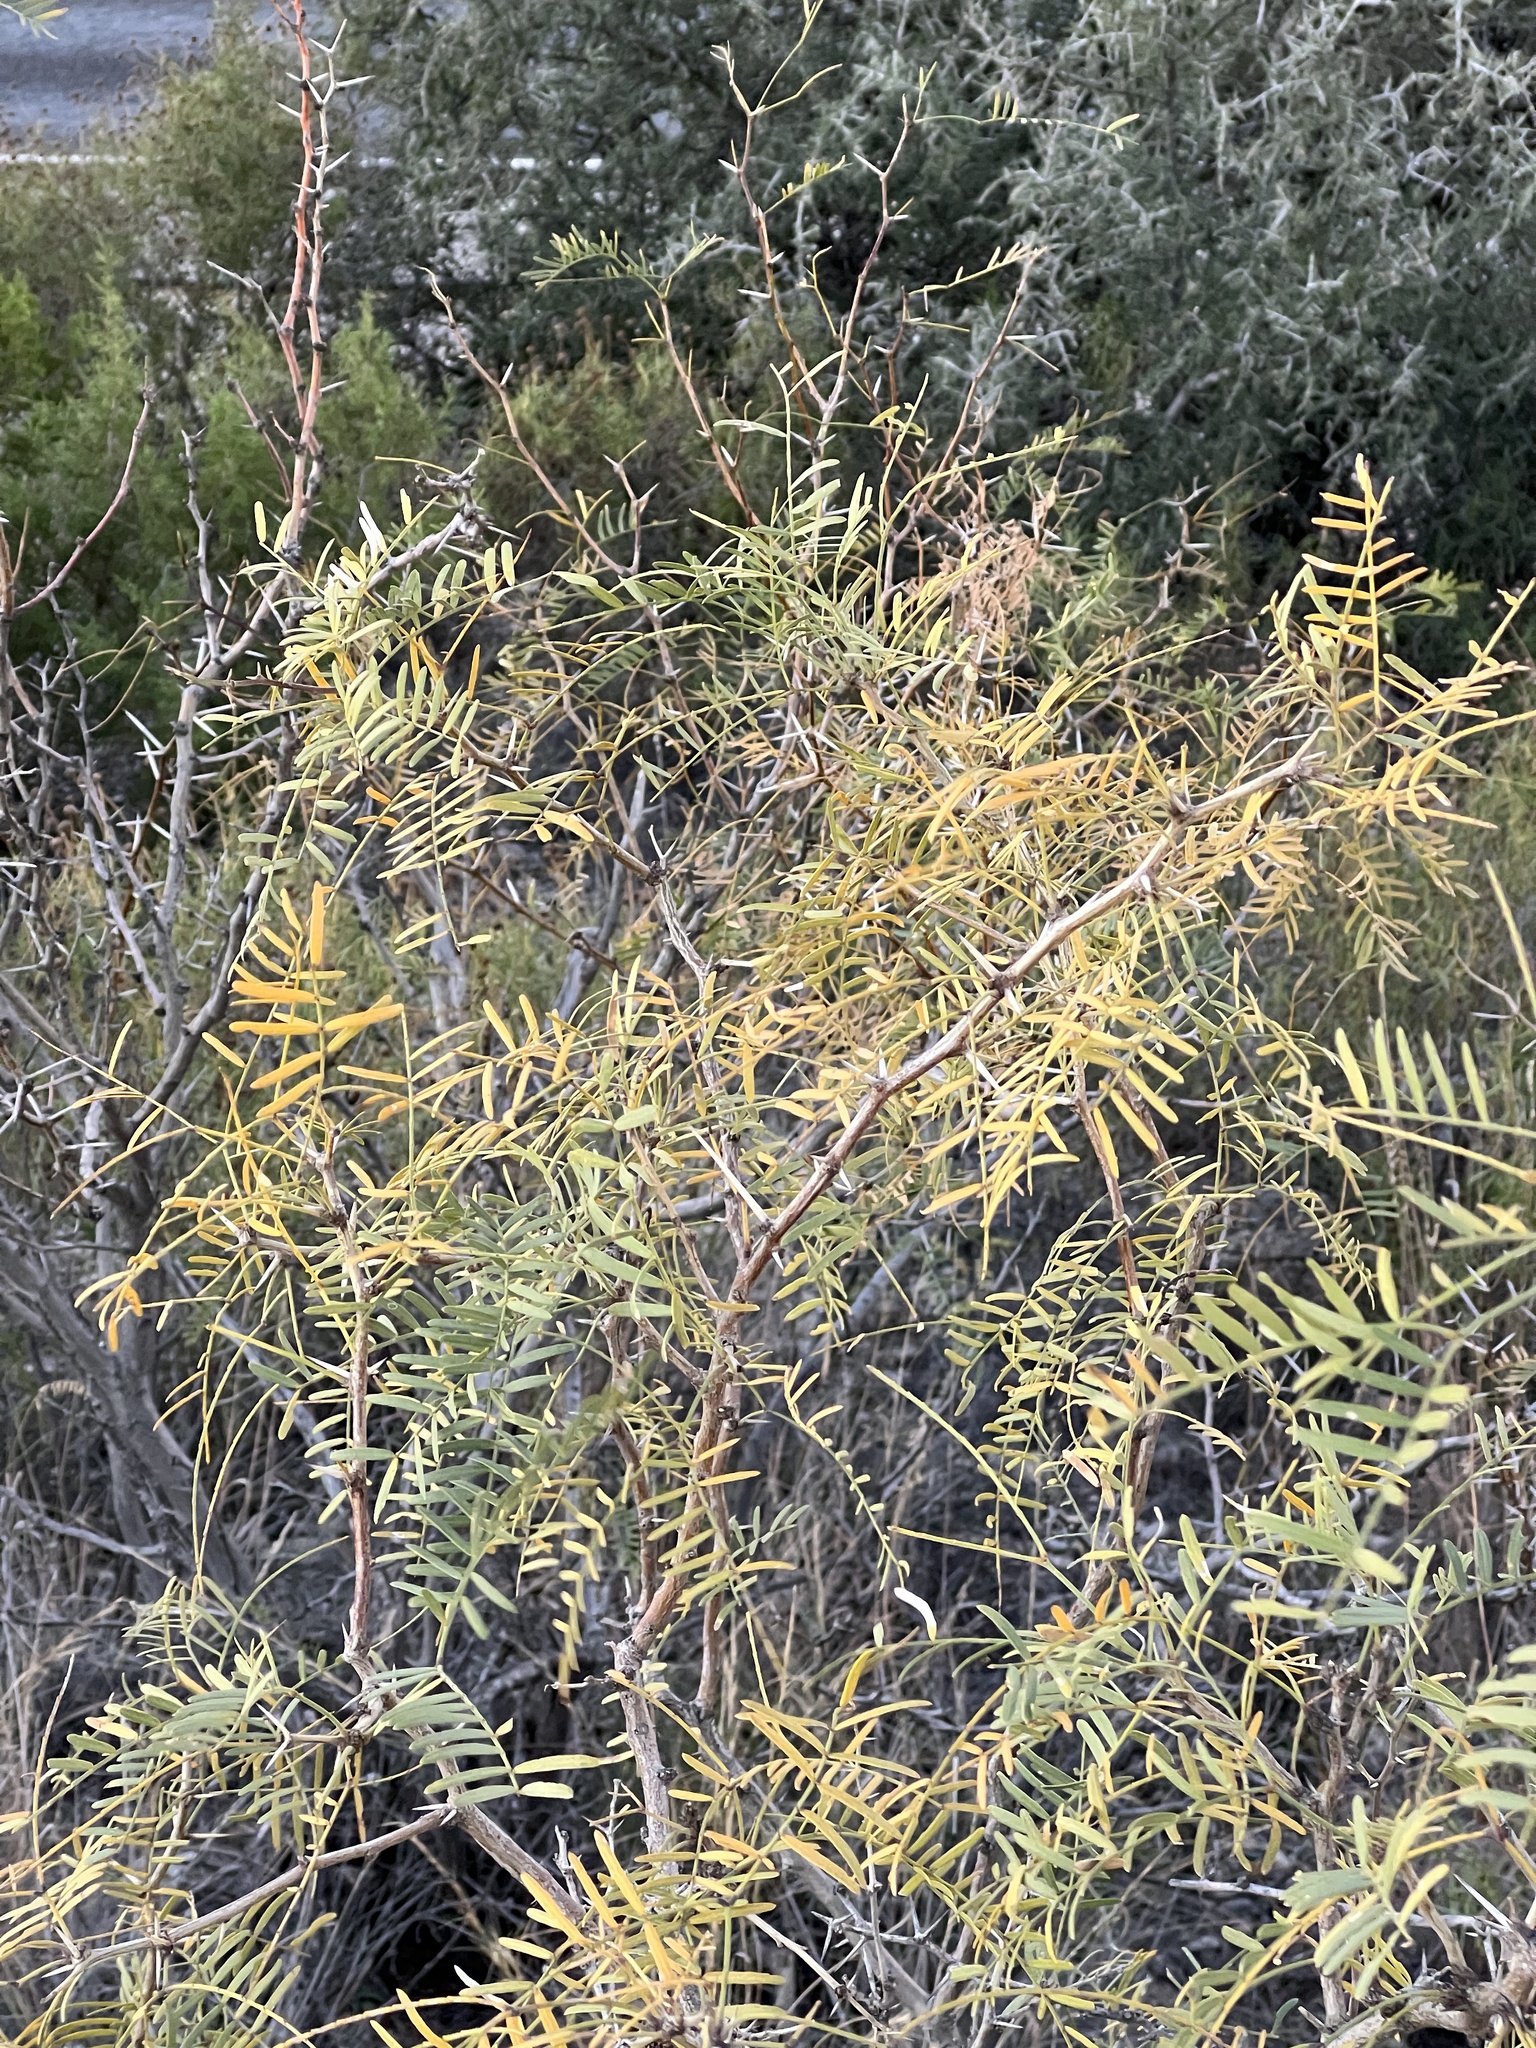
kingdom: Plantae
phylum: Tracheophyta
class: Magnoliopsida
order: Fabales
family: Fabaceae
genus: Prosopis
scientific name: Prosopis glandulosa
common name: Honey mesquite
